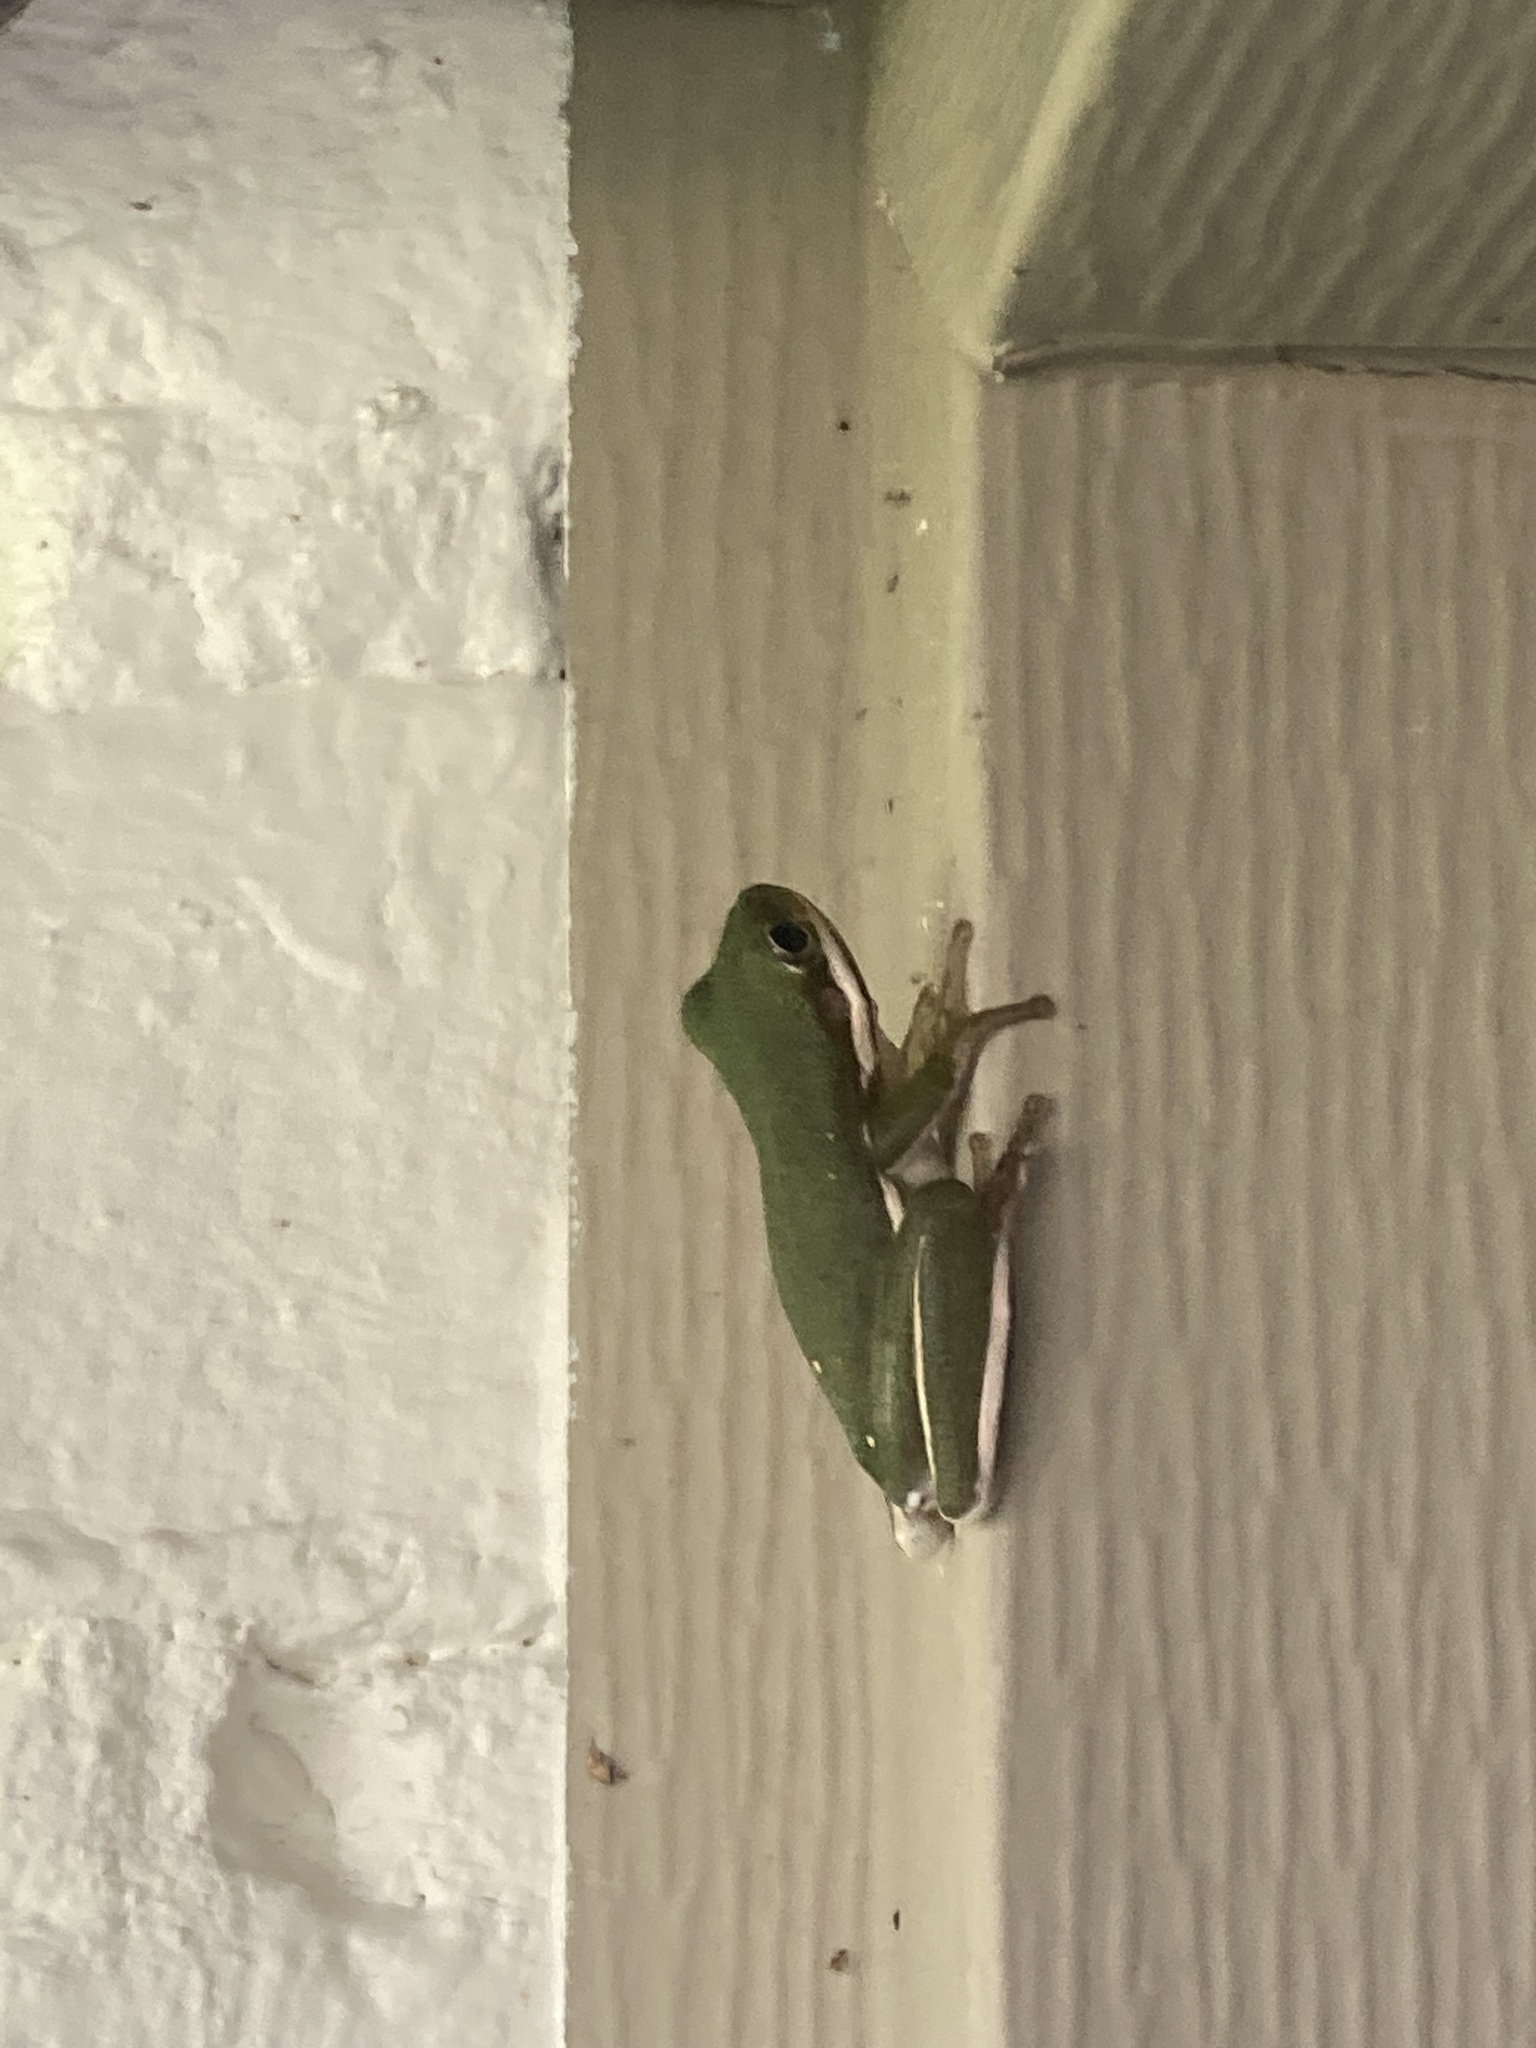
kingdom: Animalia
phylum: Chordata
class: Amphibia
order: Anura
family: Hylidae
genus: Dryophytes
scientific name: Dryophytes cinereus
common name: Green treefrog
